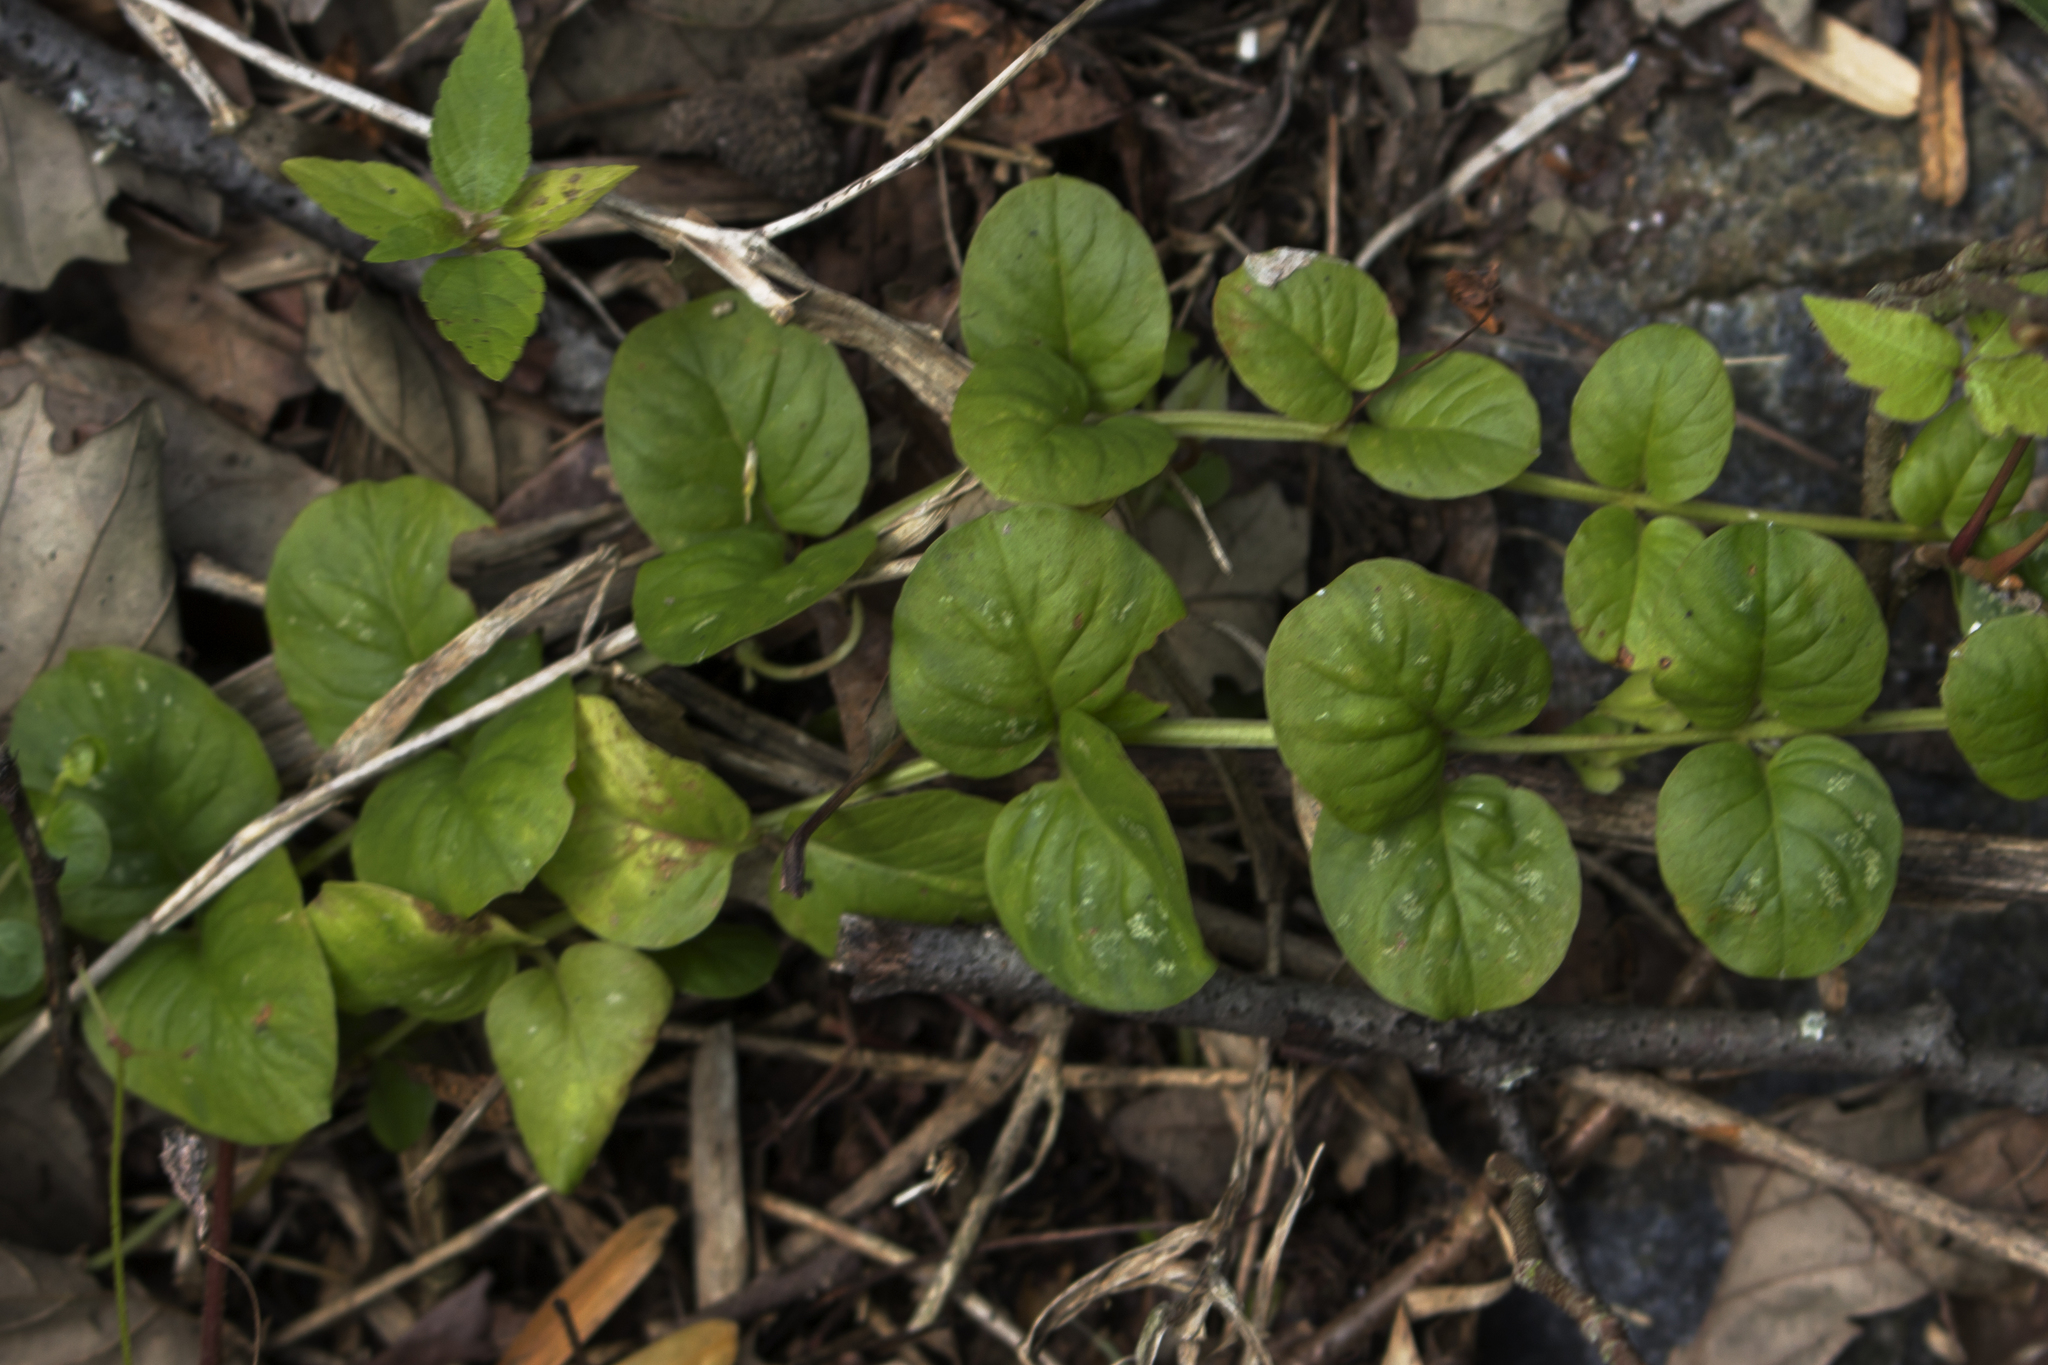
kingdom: Plantae
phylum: Tracheophyta
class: Magnoliopsida
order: Ericales
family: Primulaceae
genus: Lysimachia
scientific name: Lysimachia nummularia
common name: Moneywort
